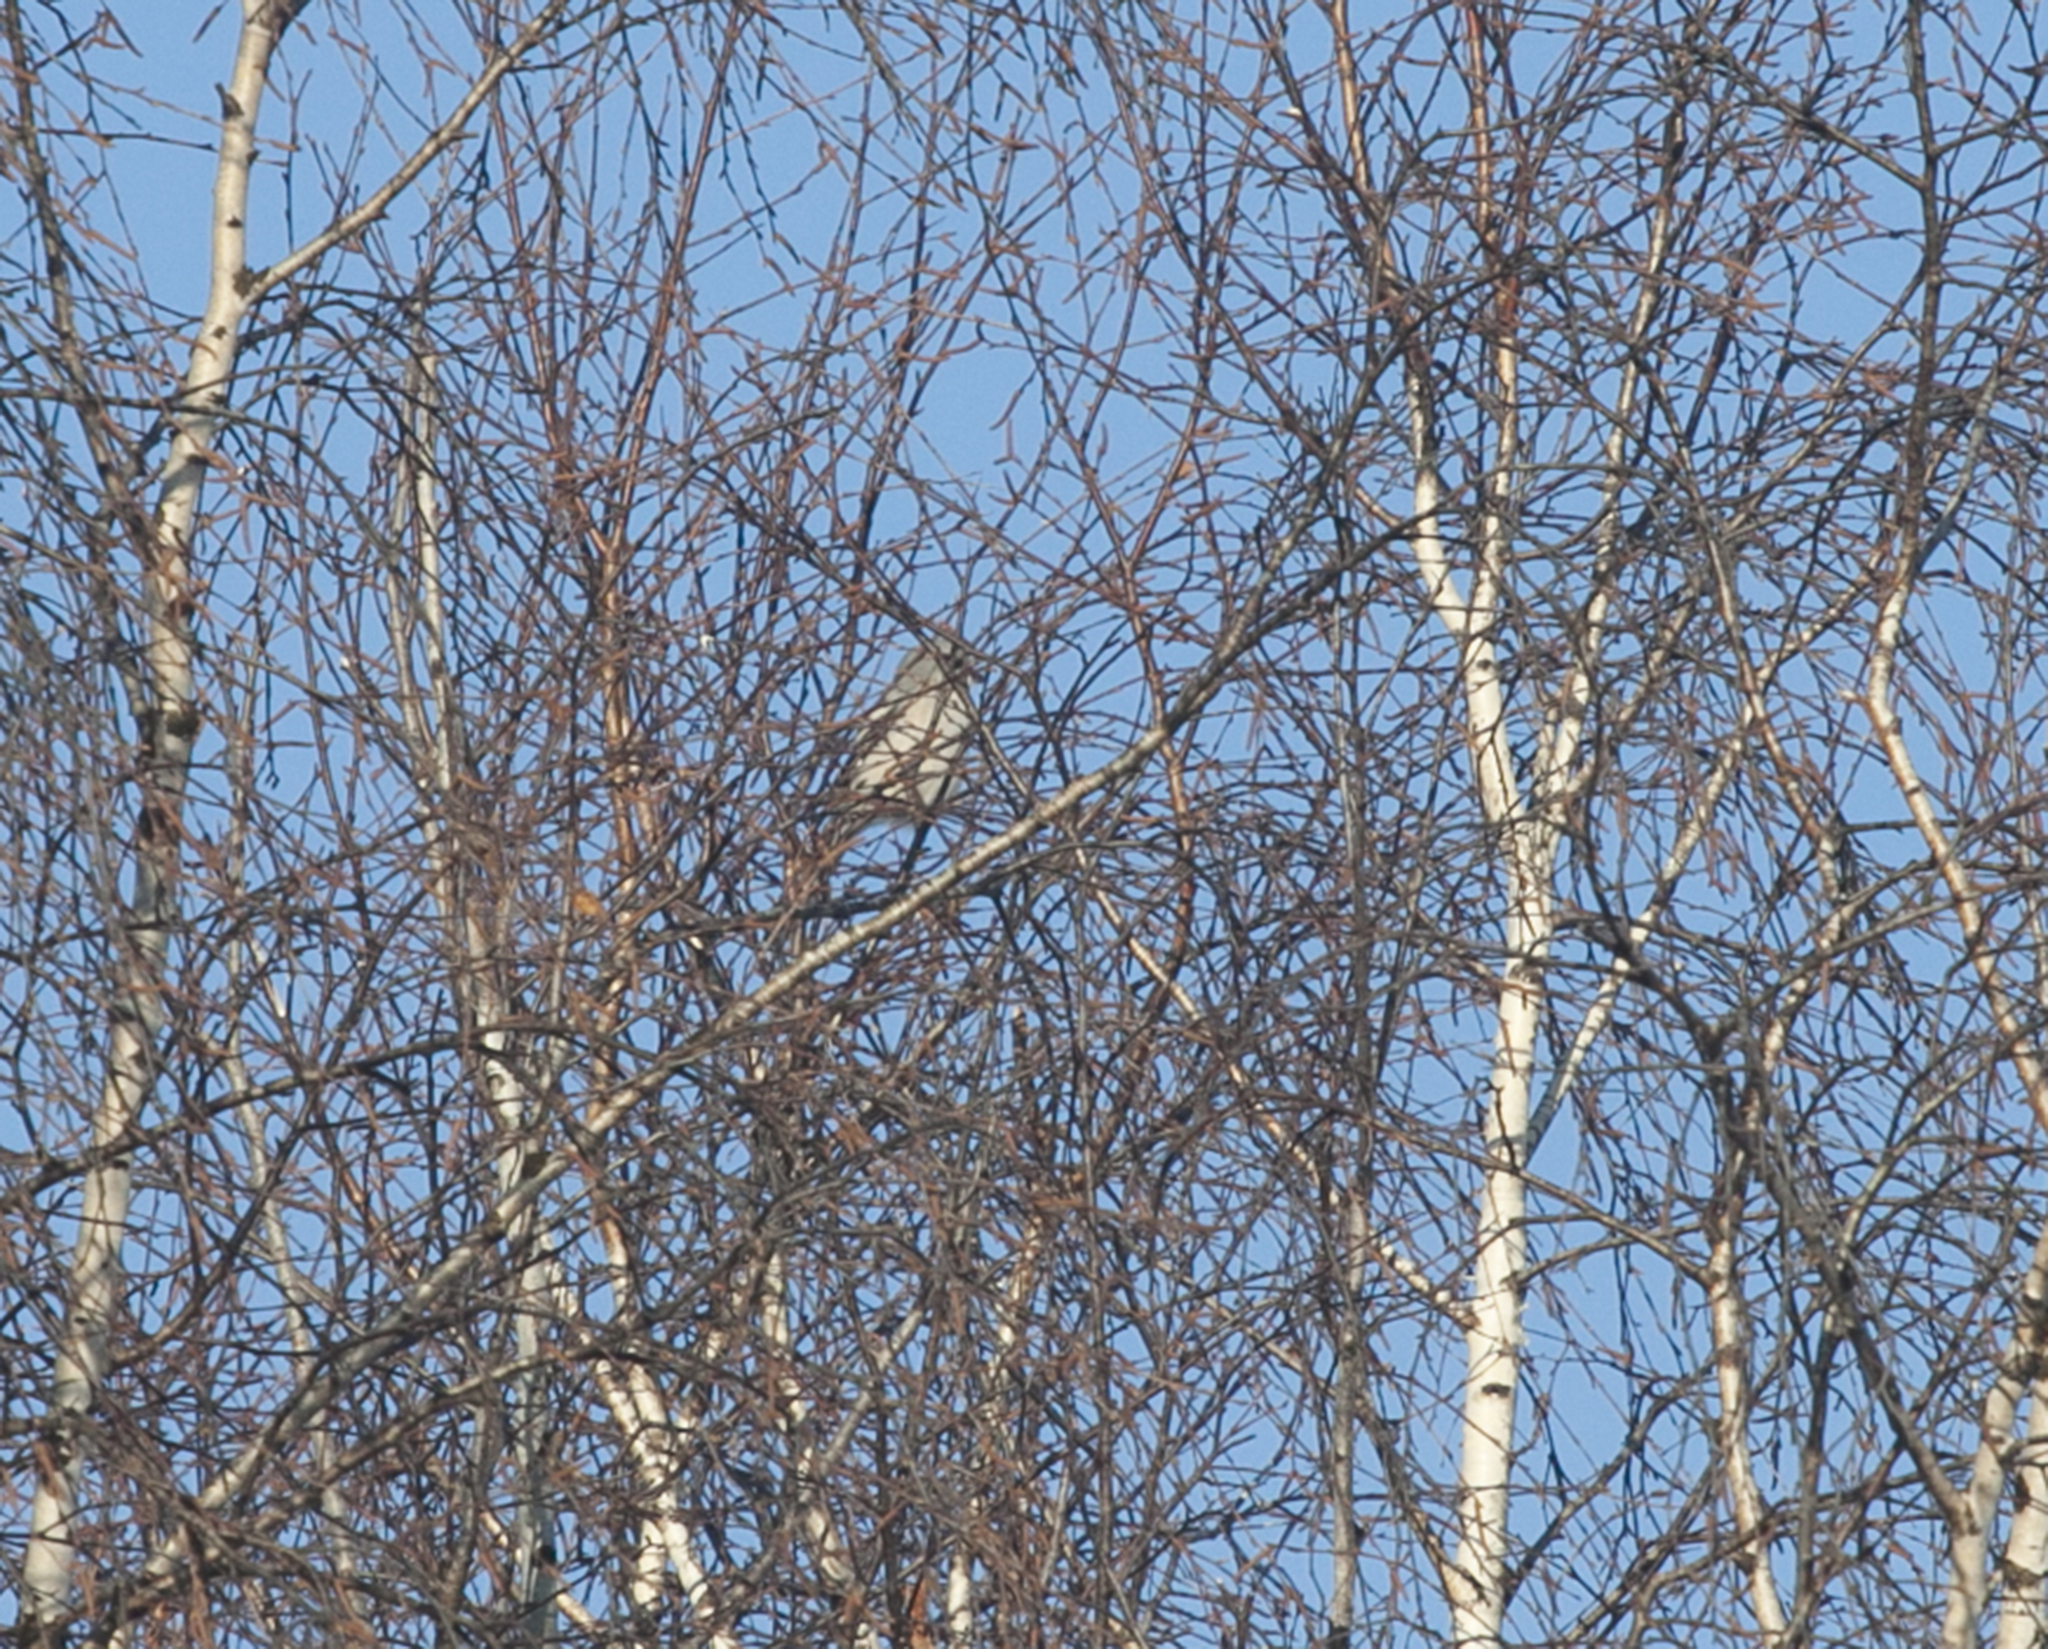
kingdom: Animalia
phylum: Chordata
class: Aves
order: Passeriformes
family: Laniidae
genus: Lanius
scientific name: Lanius excubitor
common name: Great grey shrike
